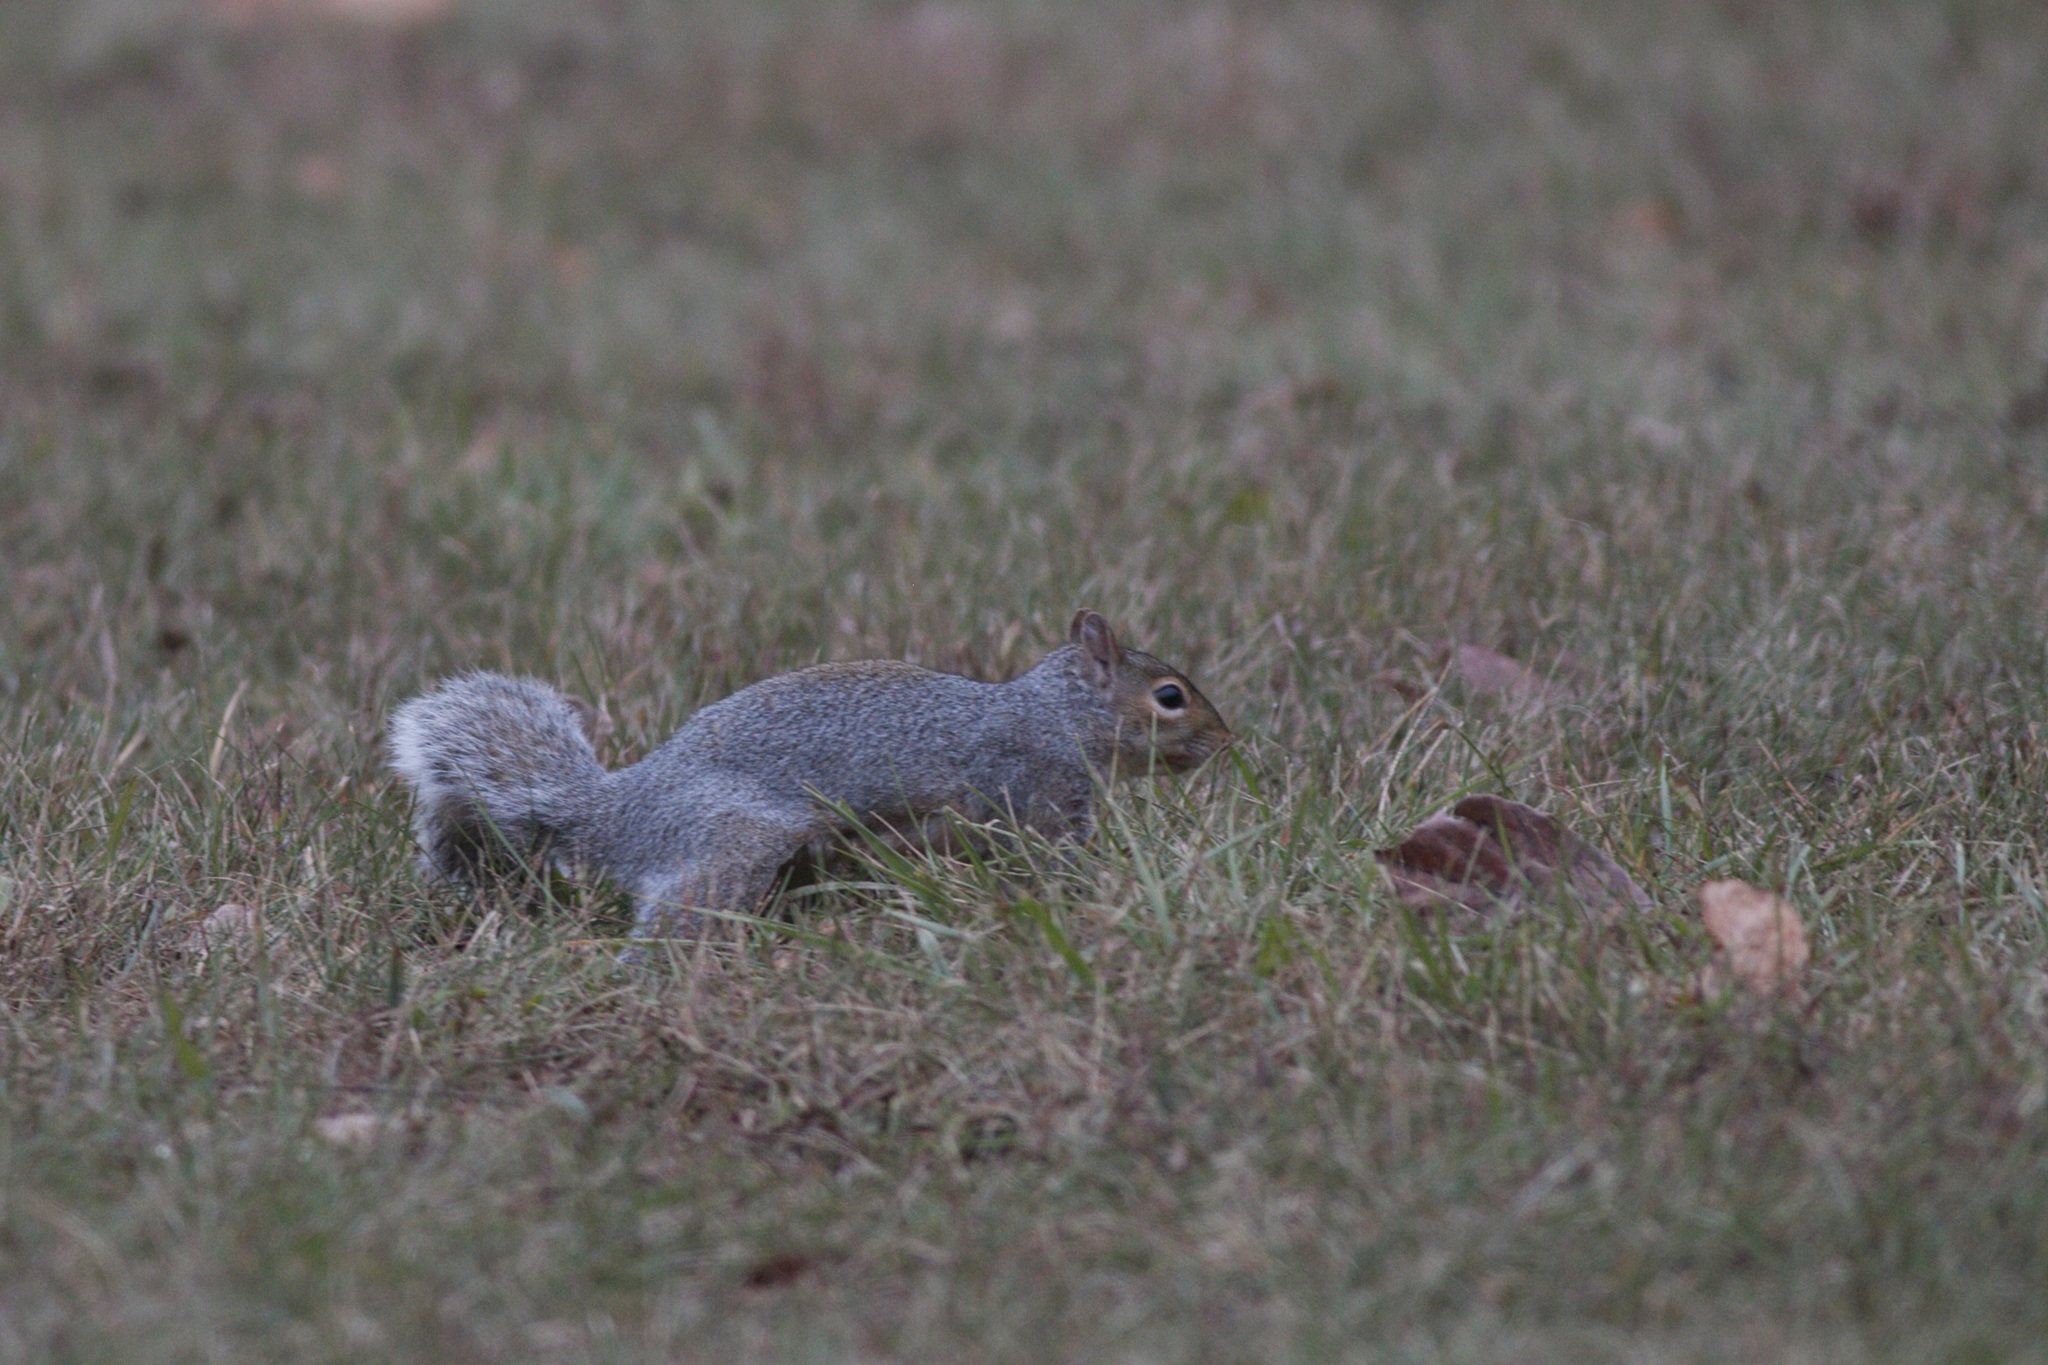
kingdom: Animalia
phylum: Chordata
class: Mammalia
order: Rodentia
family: Sciuridae
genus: Sciurus
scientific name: Sciurus carolinensis
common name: Eastern gray squirrel
